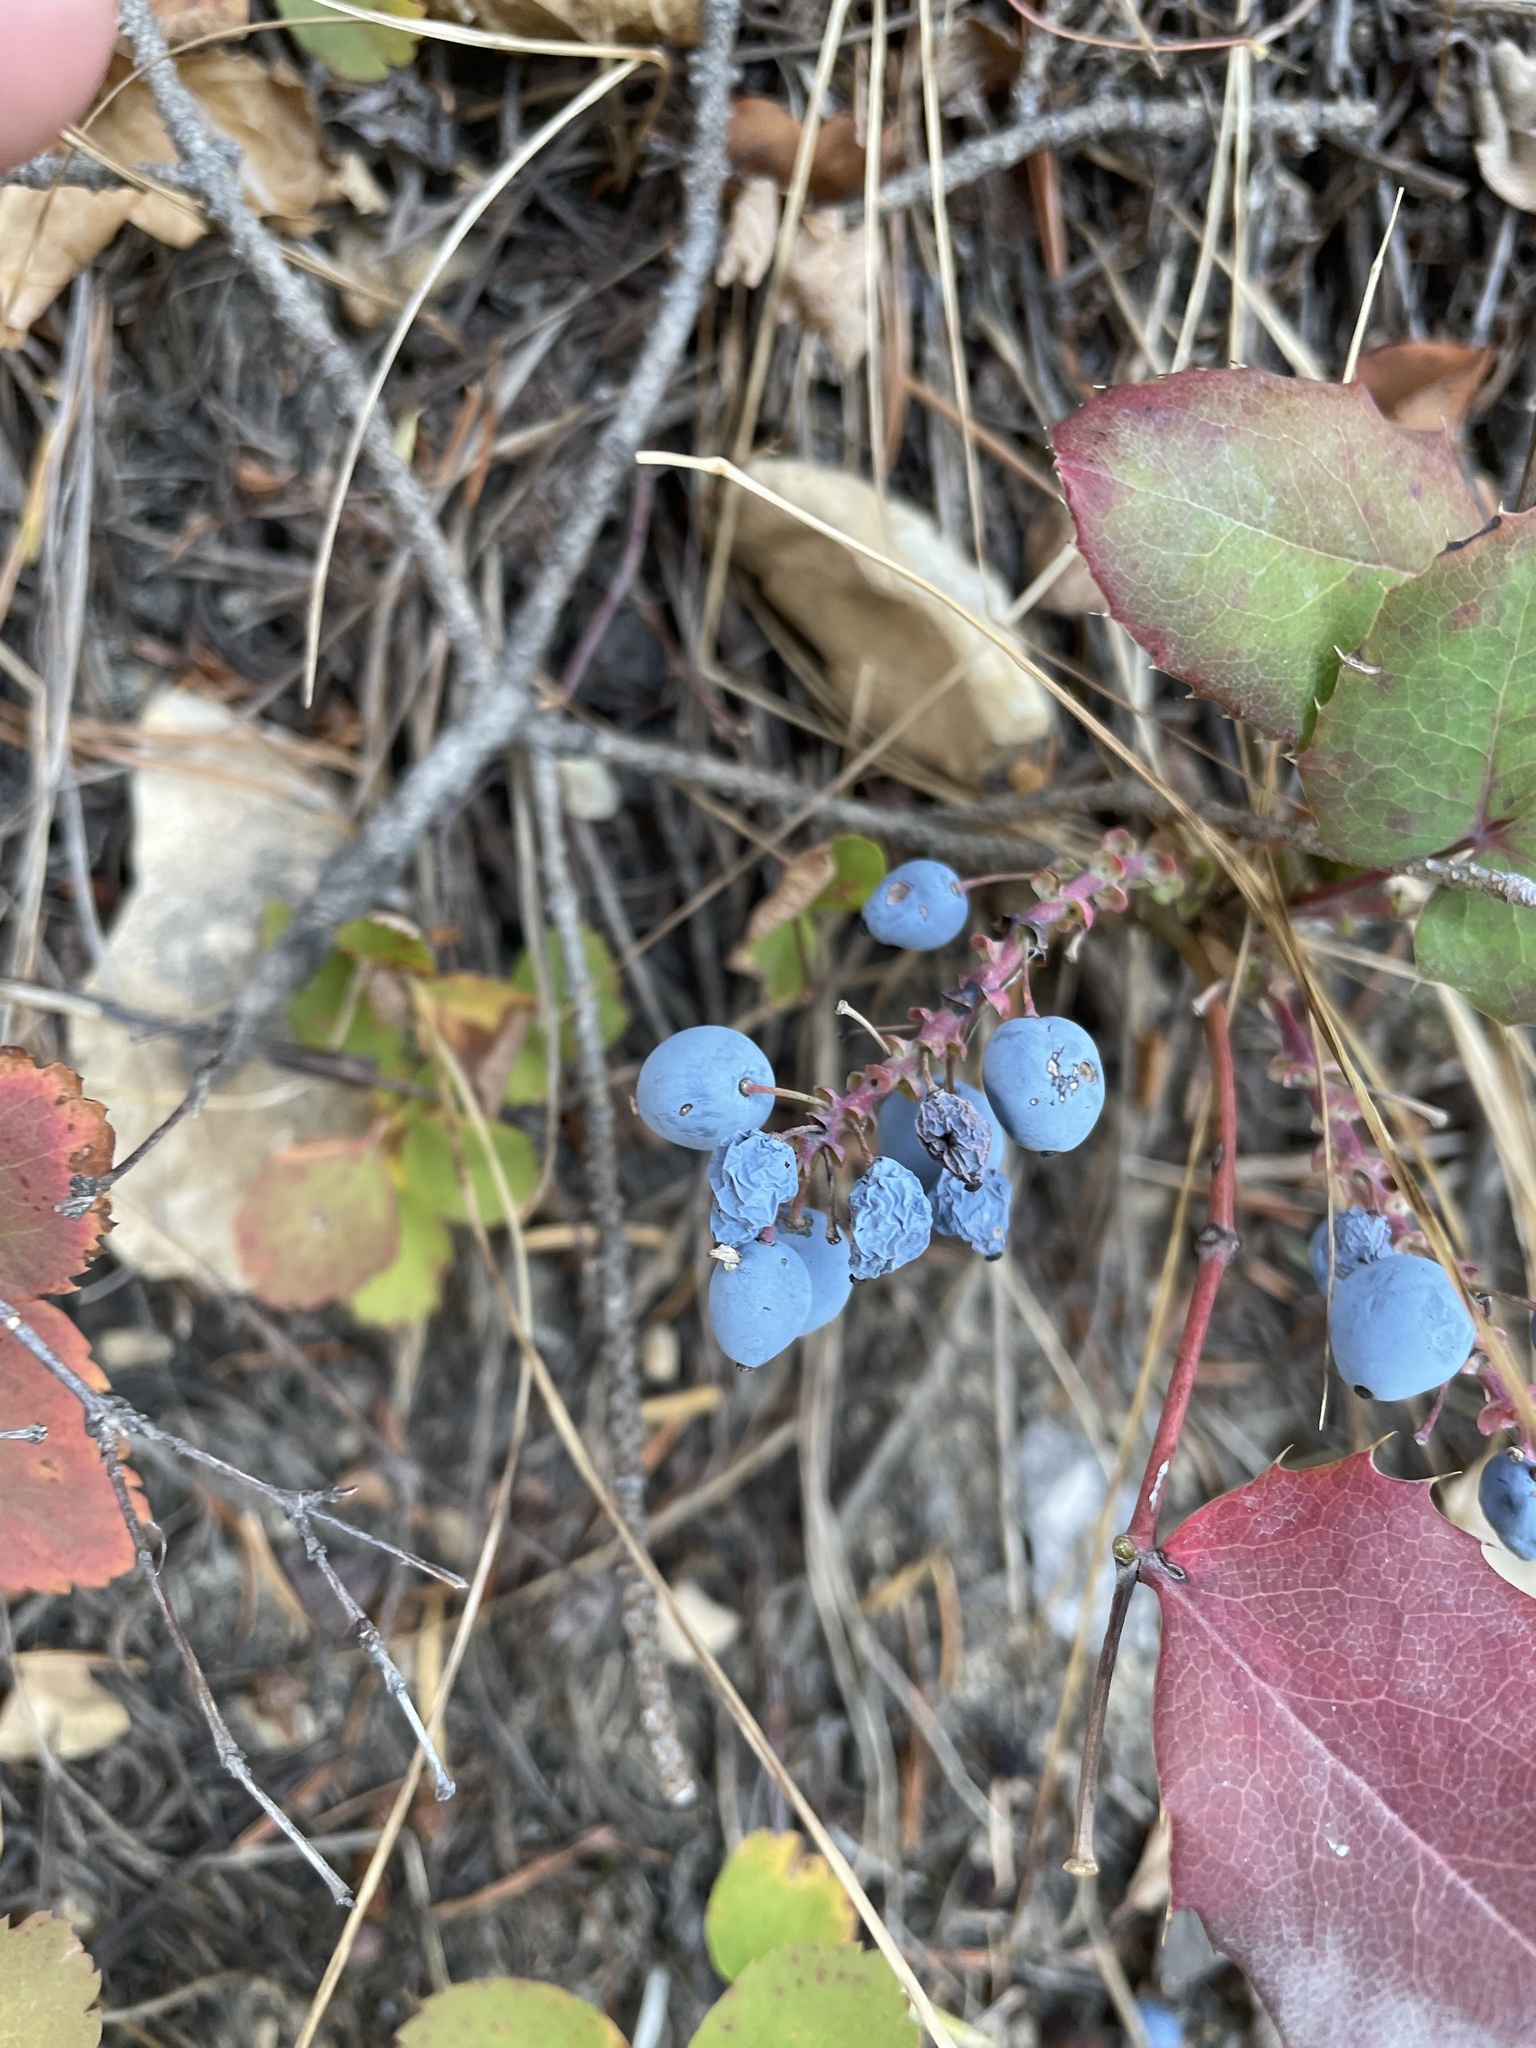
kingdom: Plantae
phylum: Tracheophyta
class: Magnoliopsida
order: Ranunculales
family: Berberidaceae
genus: Mahonia
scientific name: Mahonia repens
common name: Creeping oregon-grape
